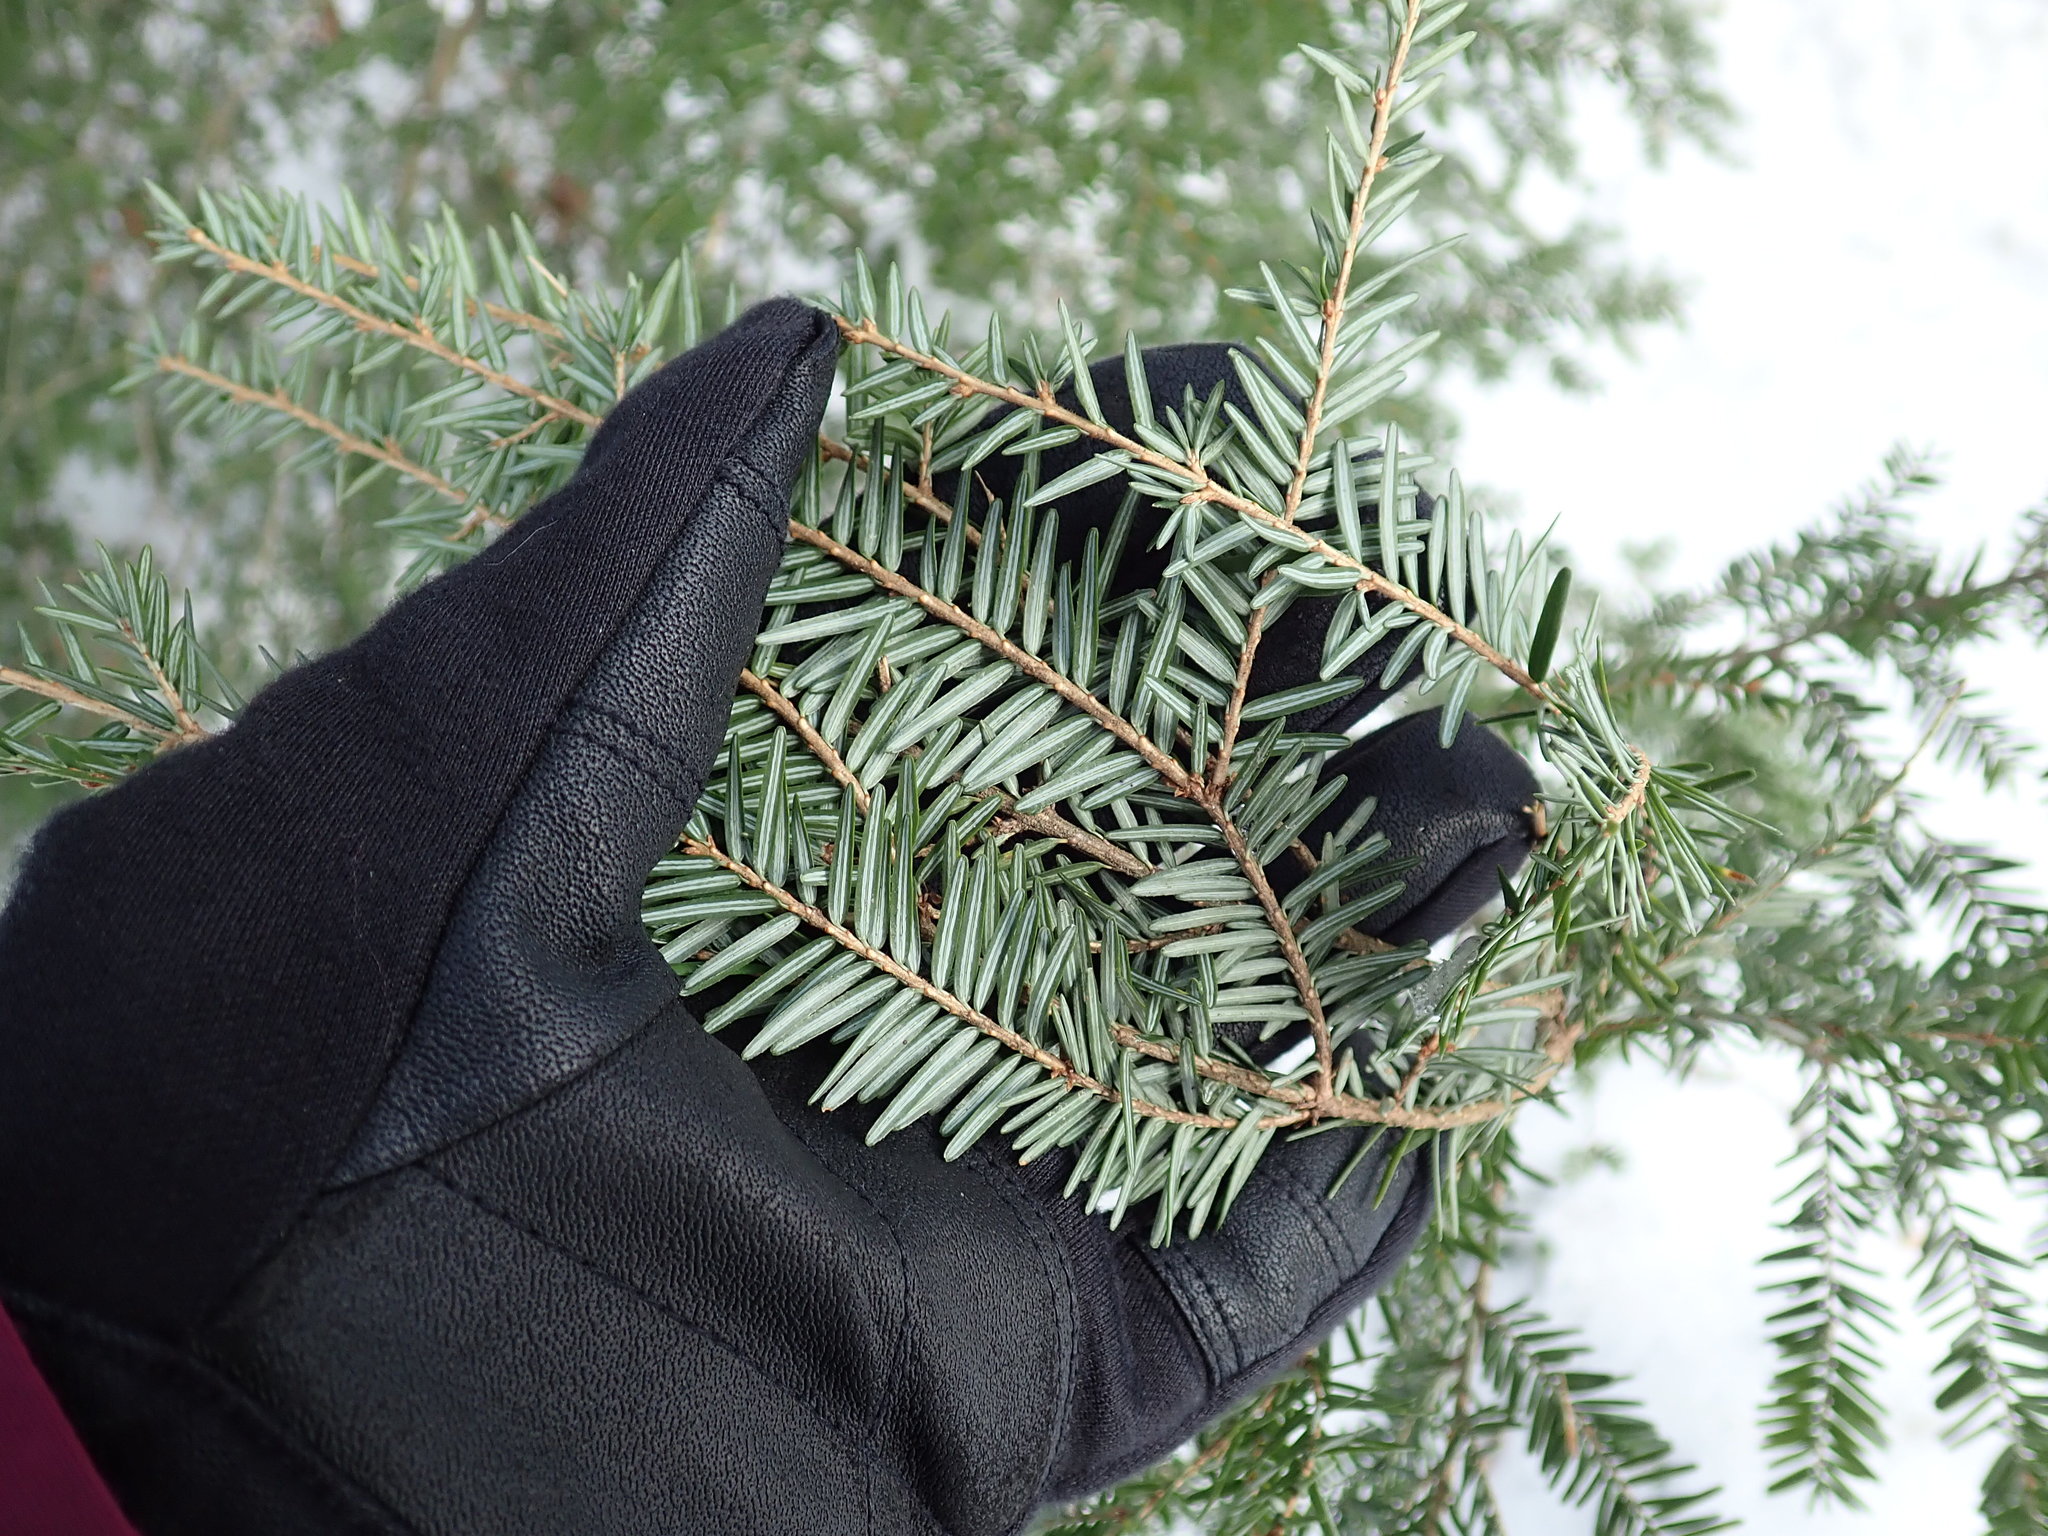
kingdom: Plantae
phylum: Tracheophyta
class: Pinopsida
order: Pinales
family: Pinaceae
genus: Tsuga
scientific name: Tsuga canadensis
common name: Eastern hemlock
